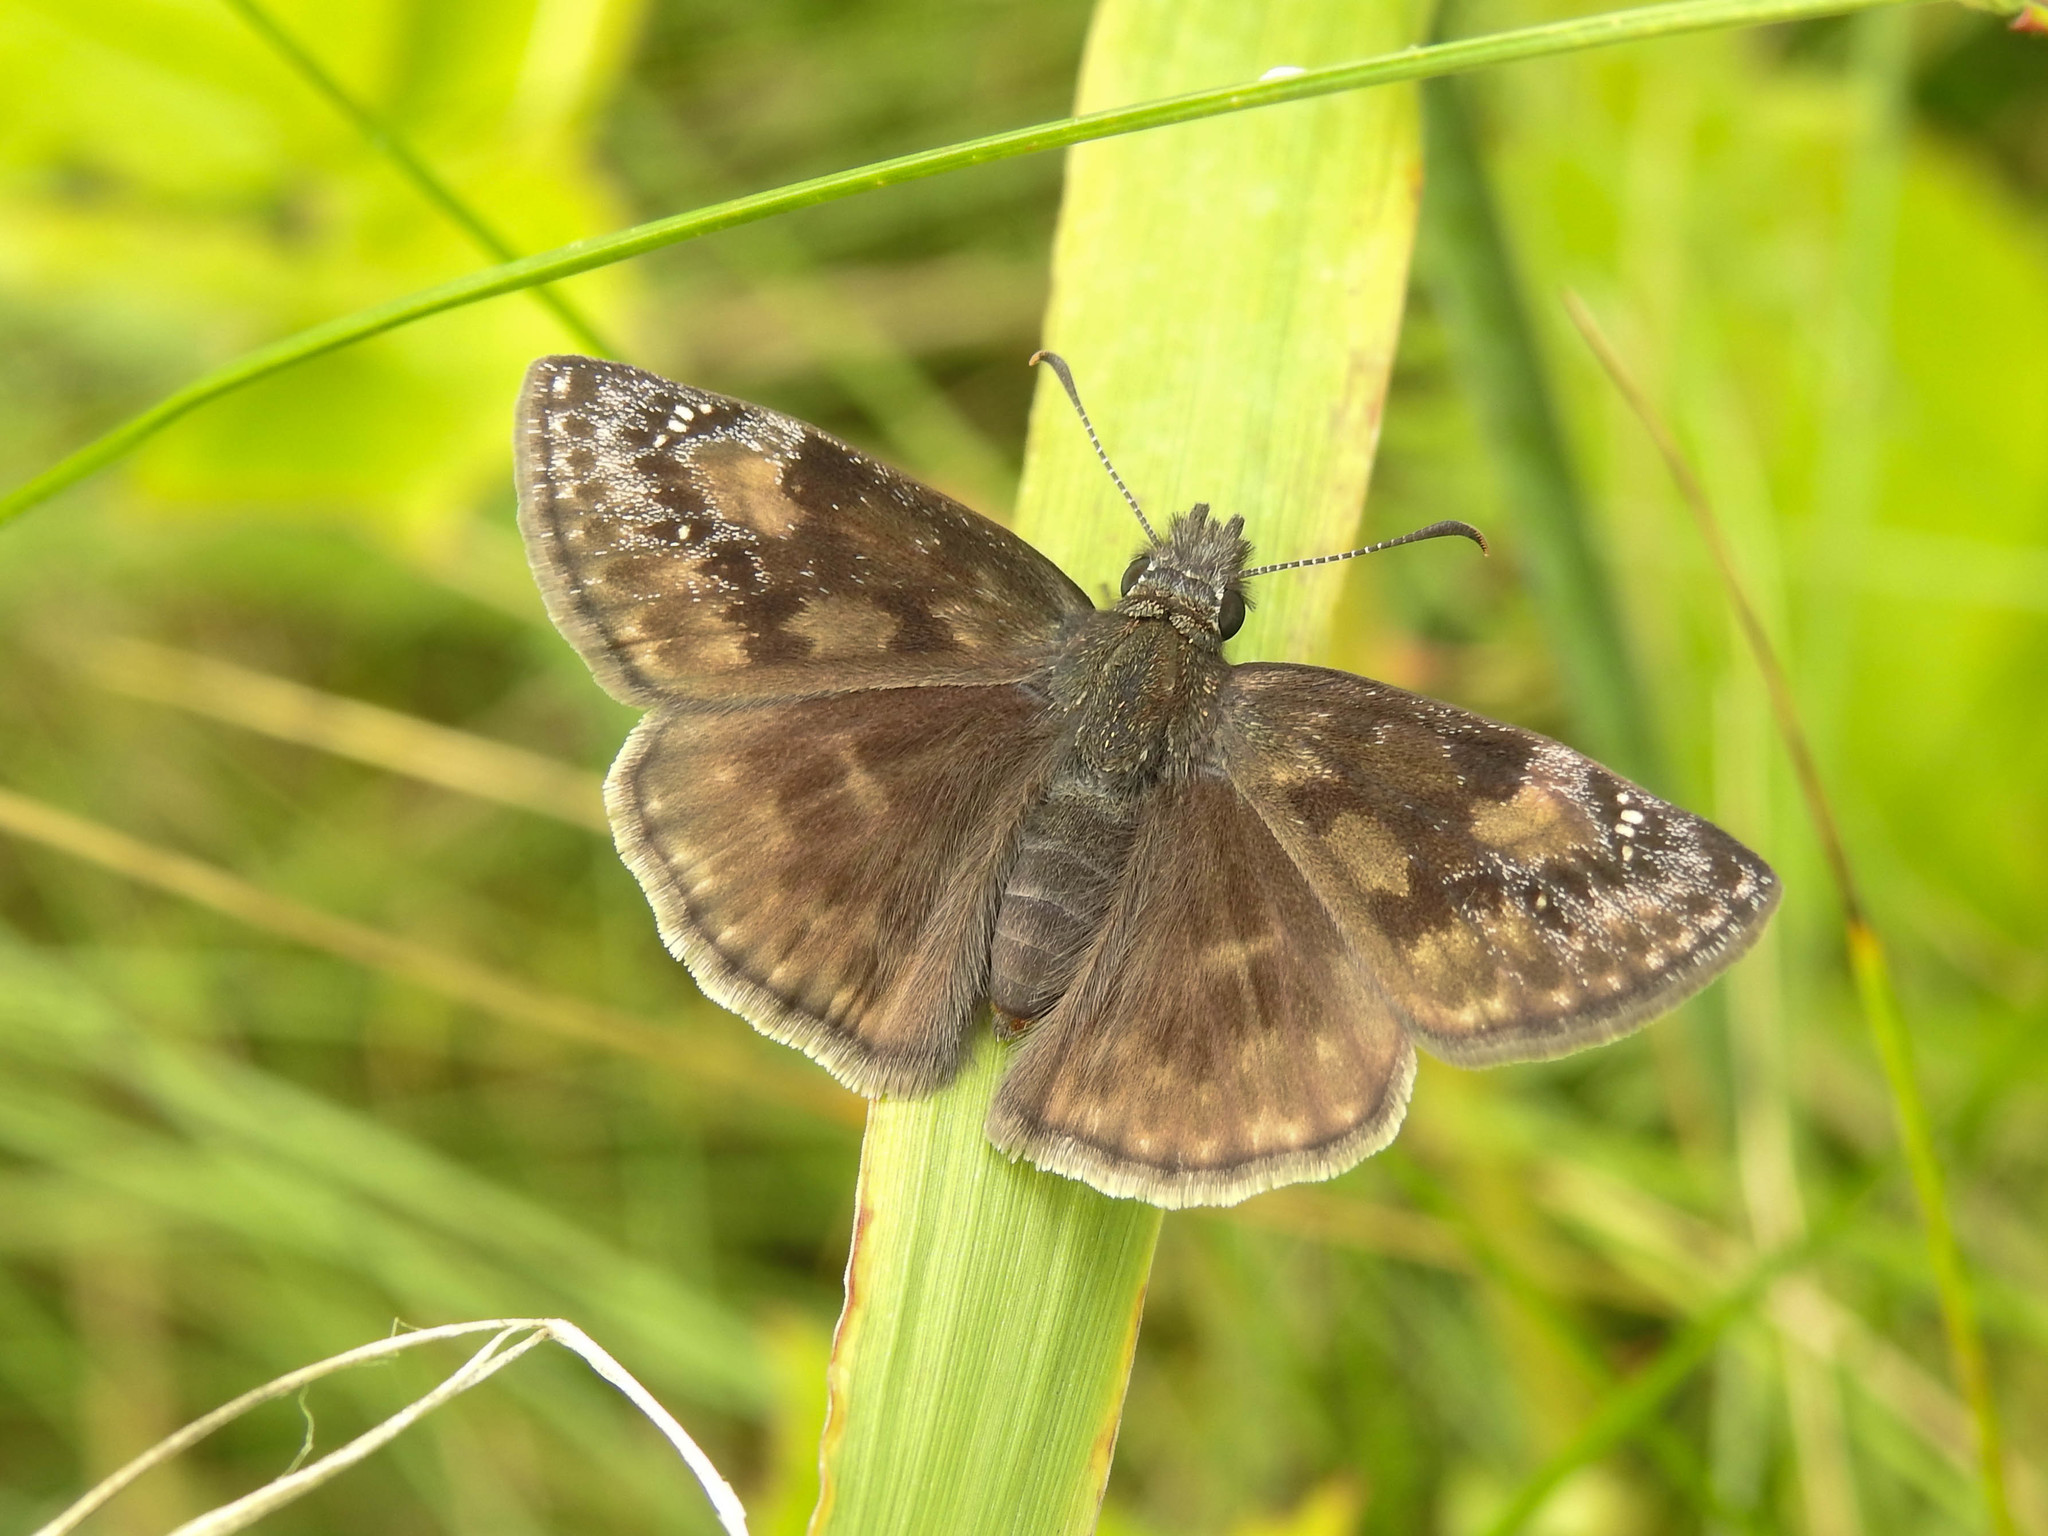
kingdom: Animalia
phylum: Arthropoda
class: Insecta
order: Lepidoptera
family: Hesperiidae
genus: Erynnis
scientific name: Erynnis baptisiae
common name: Wild indigo duskywing
